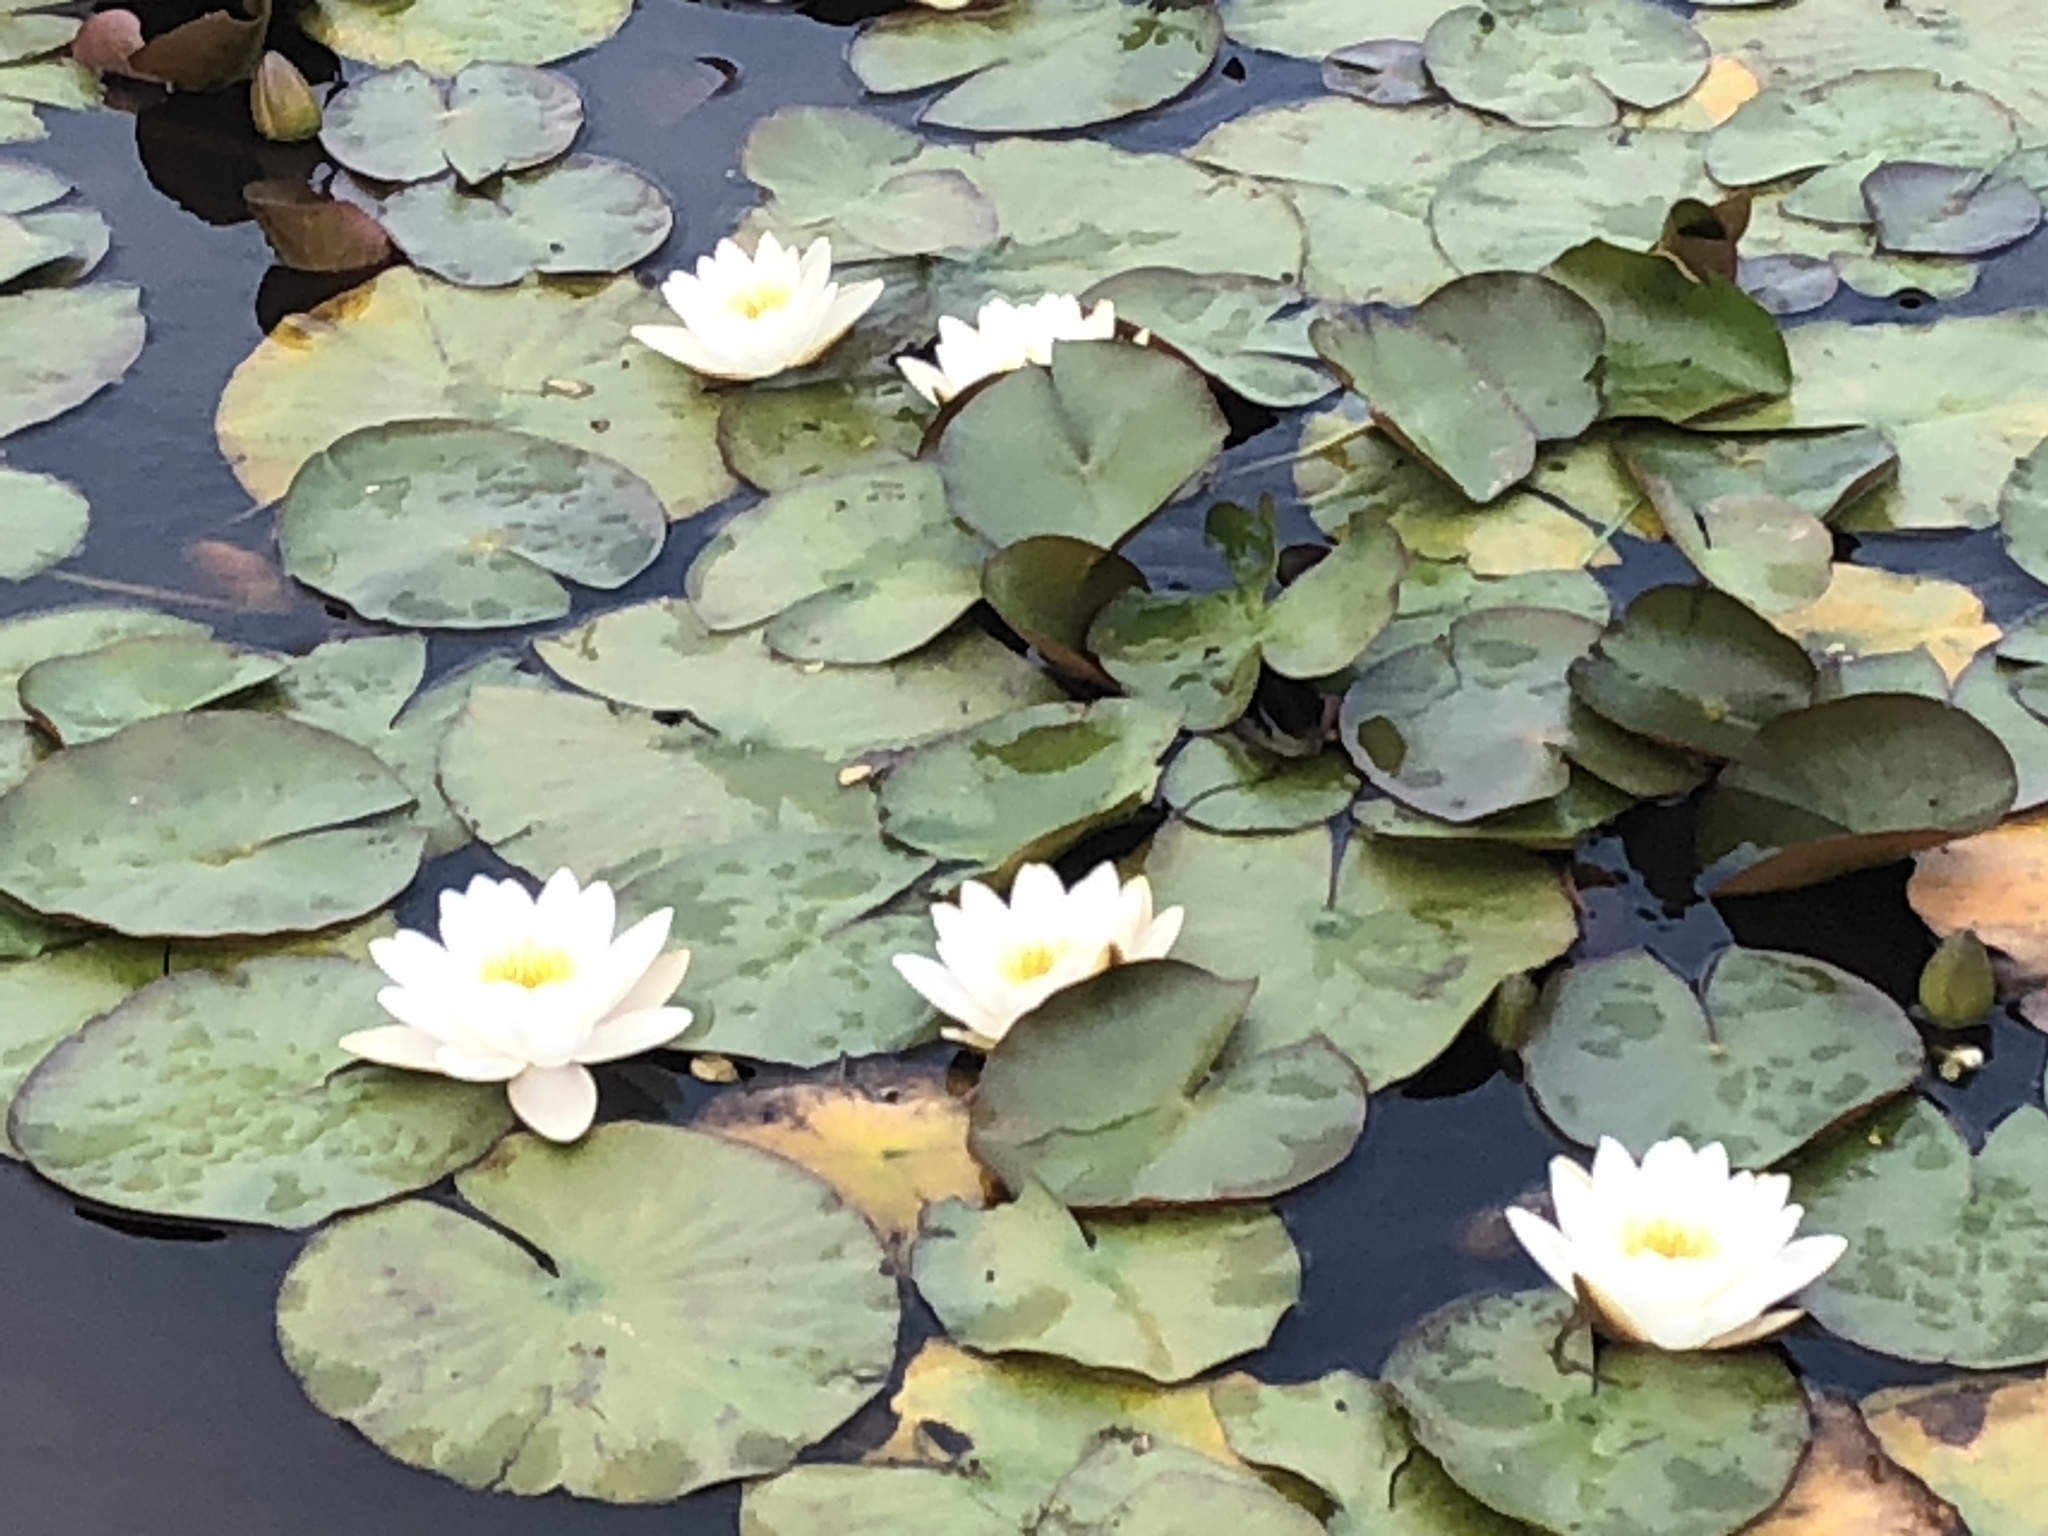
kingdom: Plantae
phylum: Tracheophyta
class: Magnoliopsida
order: Nymphaeales
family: Nymphaeaceae
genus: Nymphaea
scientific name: Nymphaea alba
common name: White water-lily
